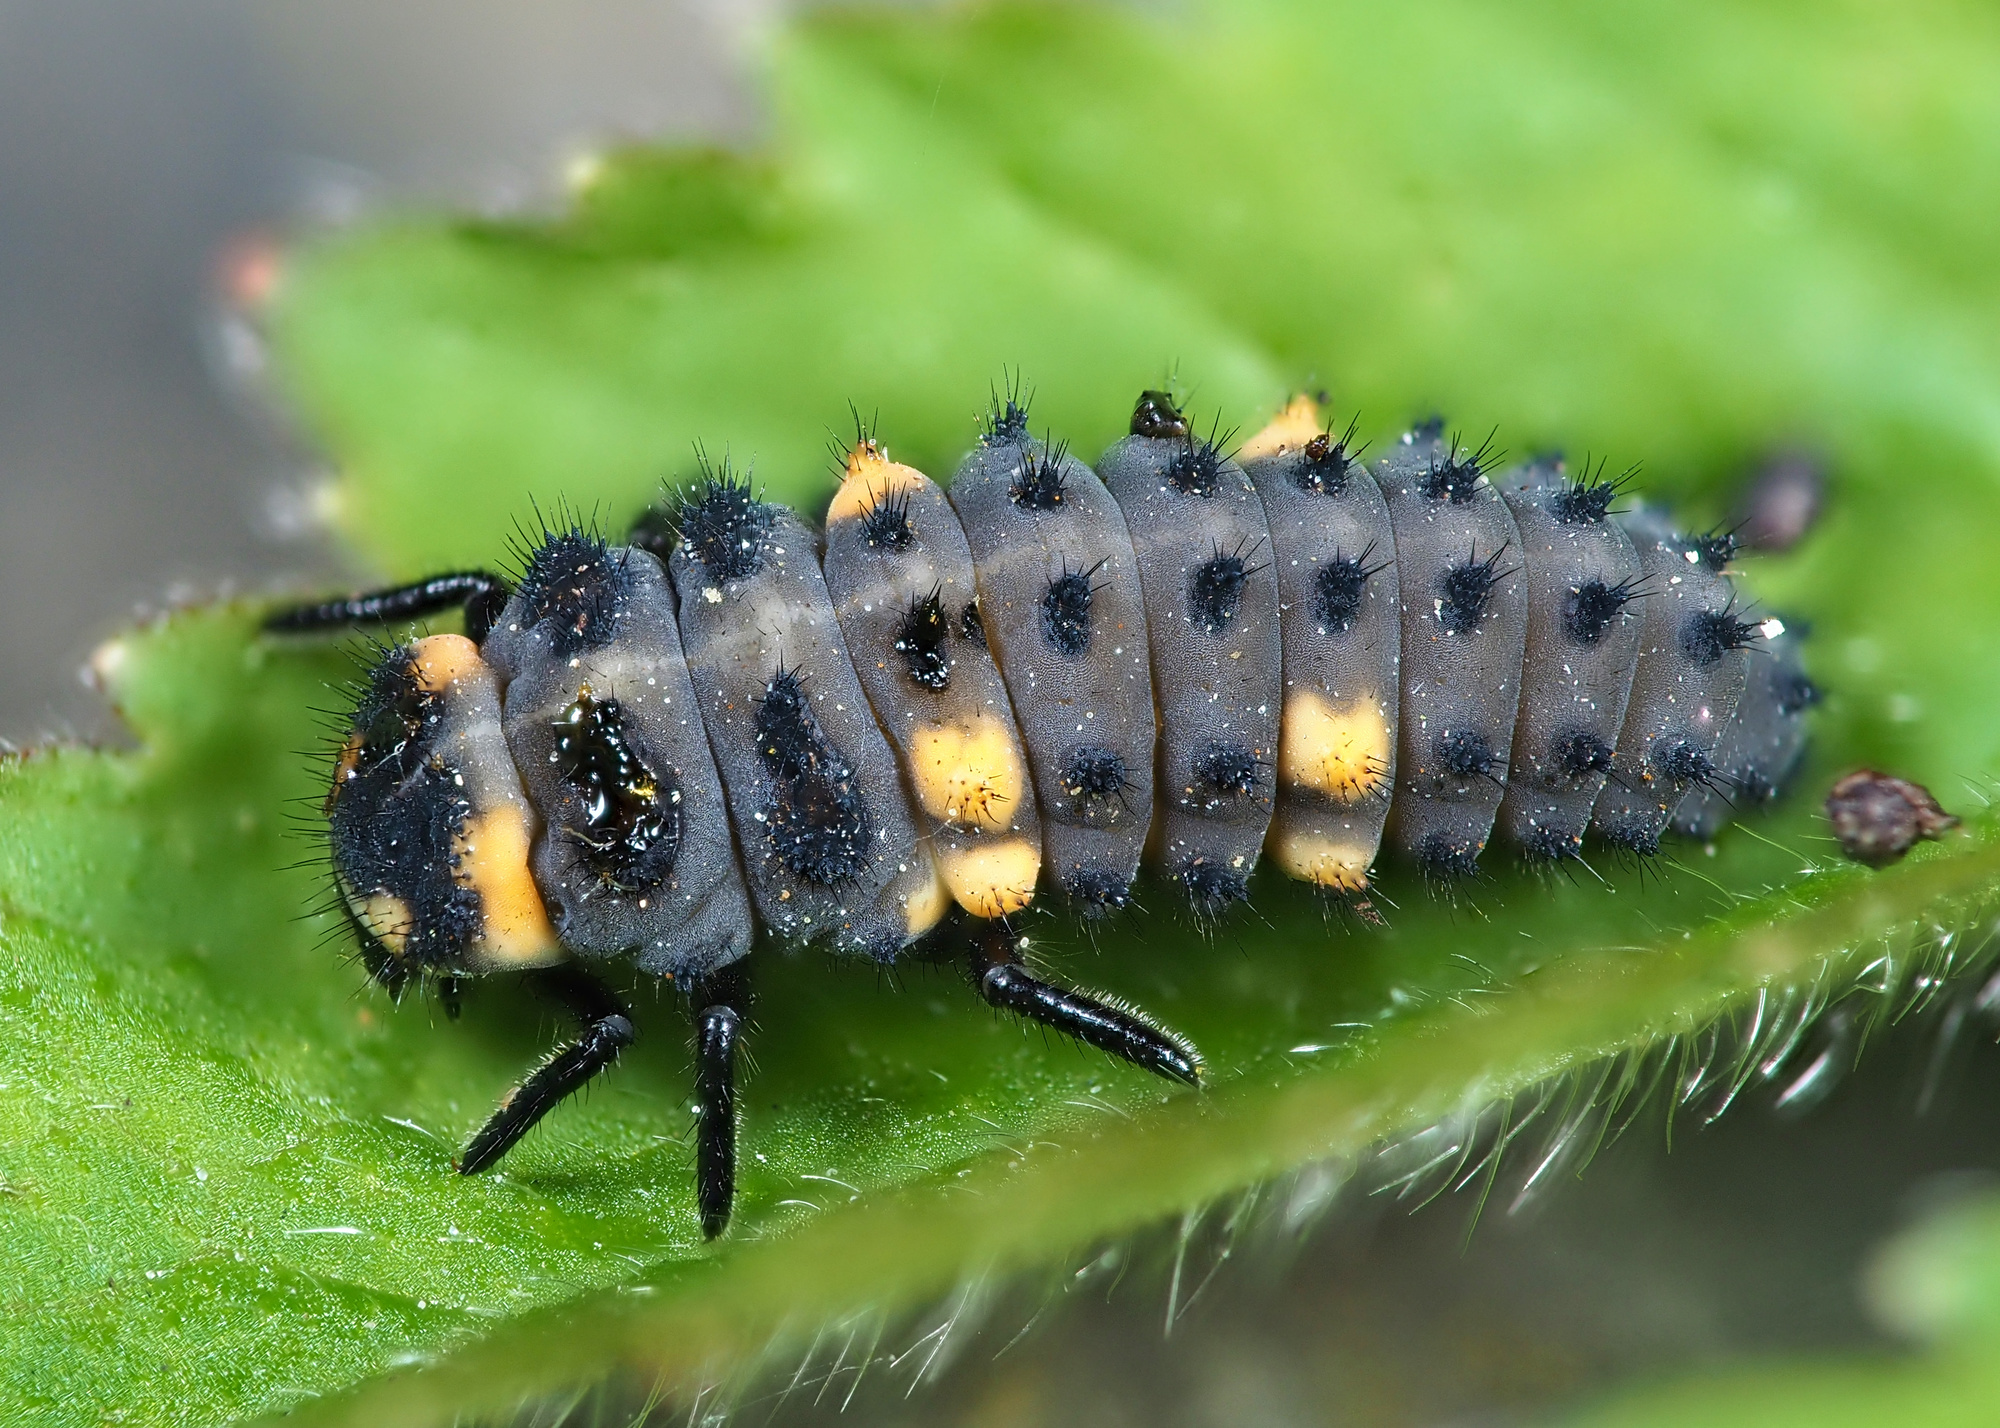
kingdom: Animalia
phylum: Arthropoda
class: Insecta
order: Coleoptera
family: Coccinellidae
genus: Coccinella
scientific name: Coccinella septempunctata
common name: Sevenspotted lady beetle
